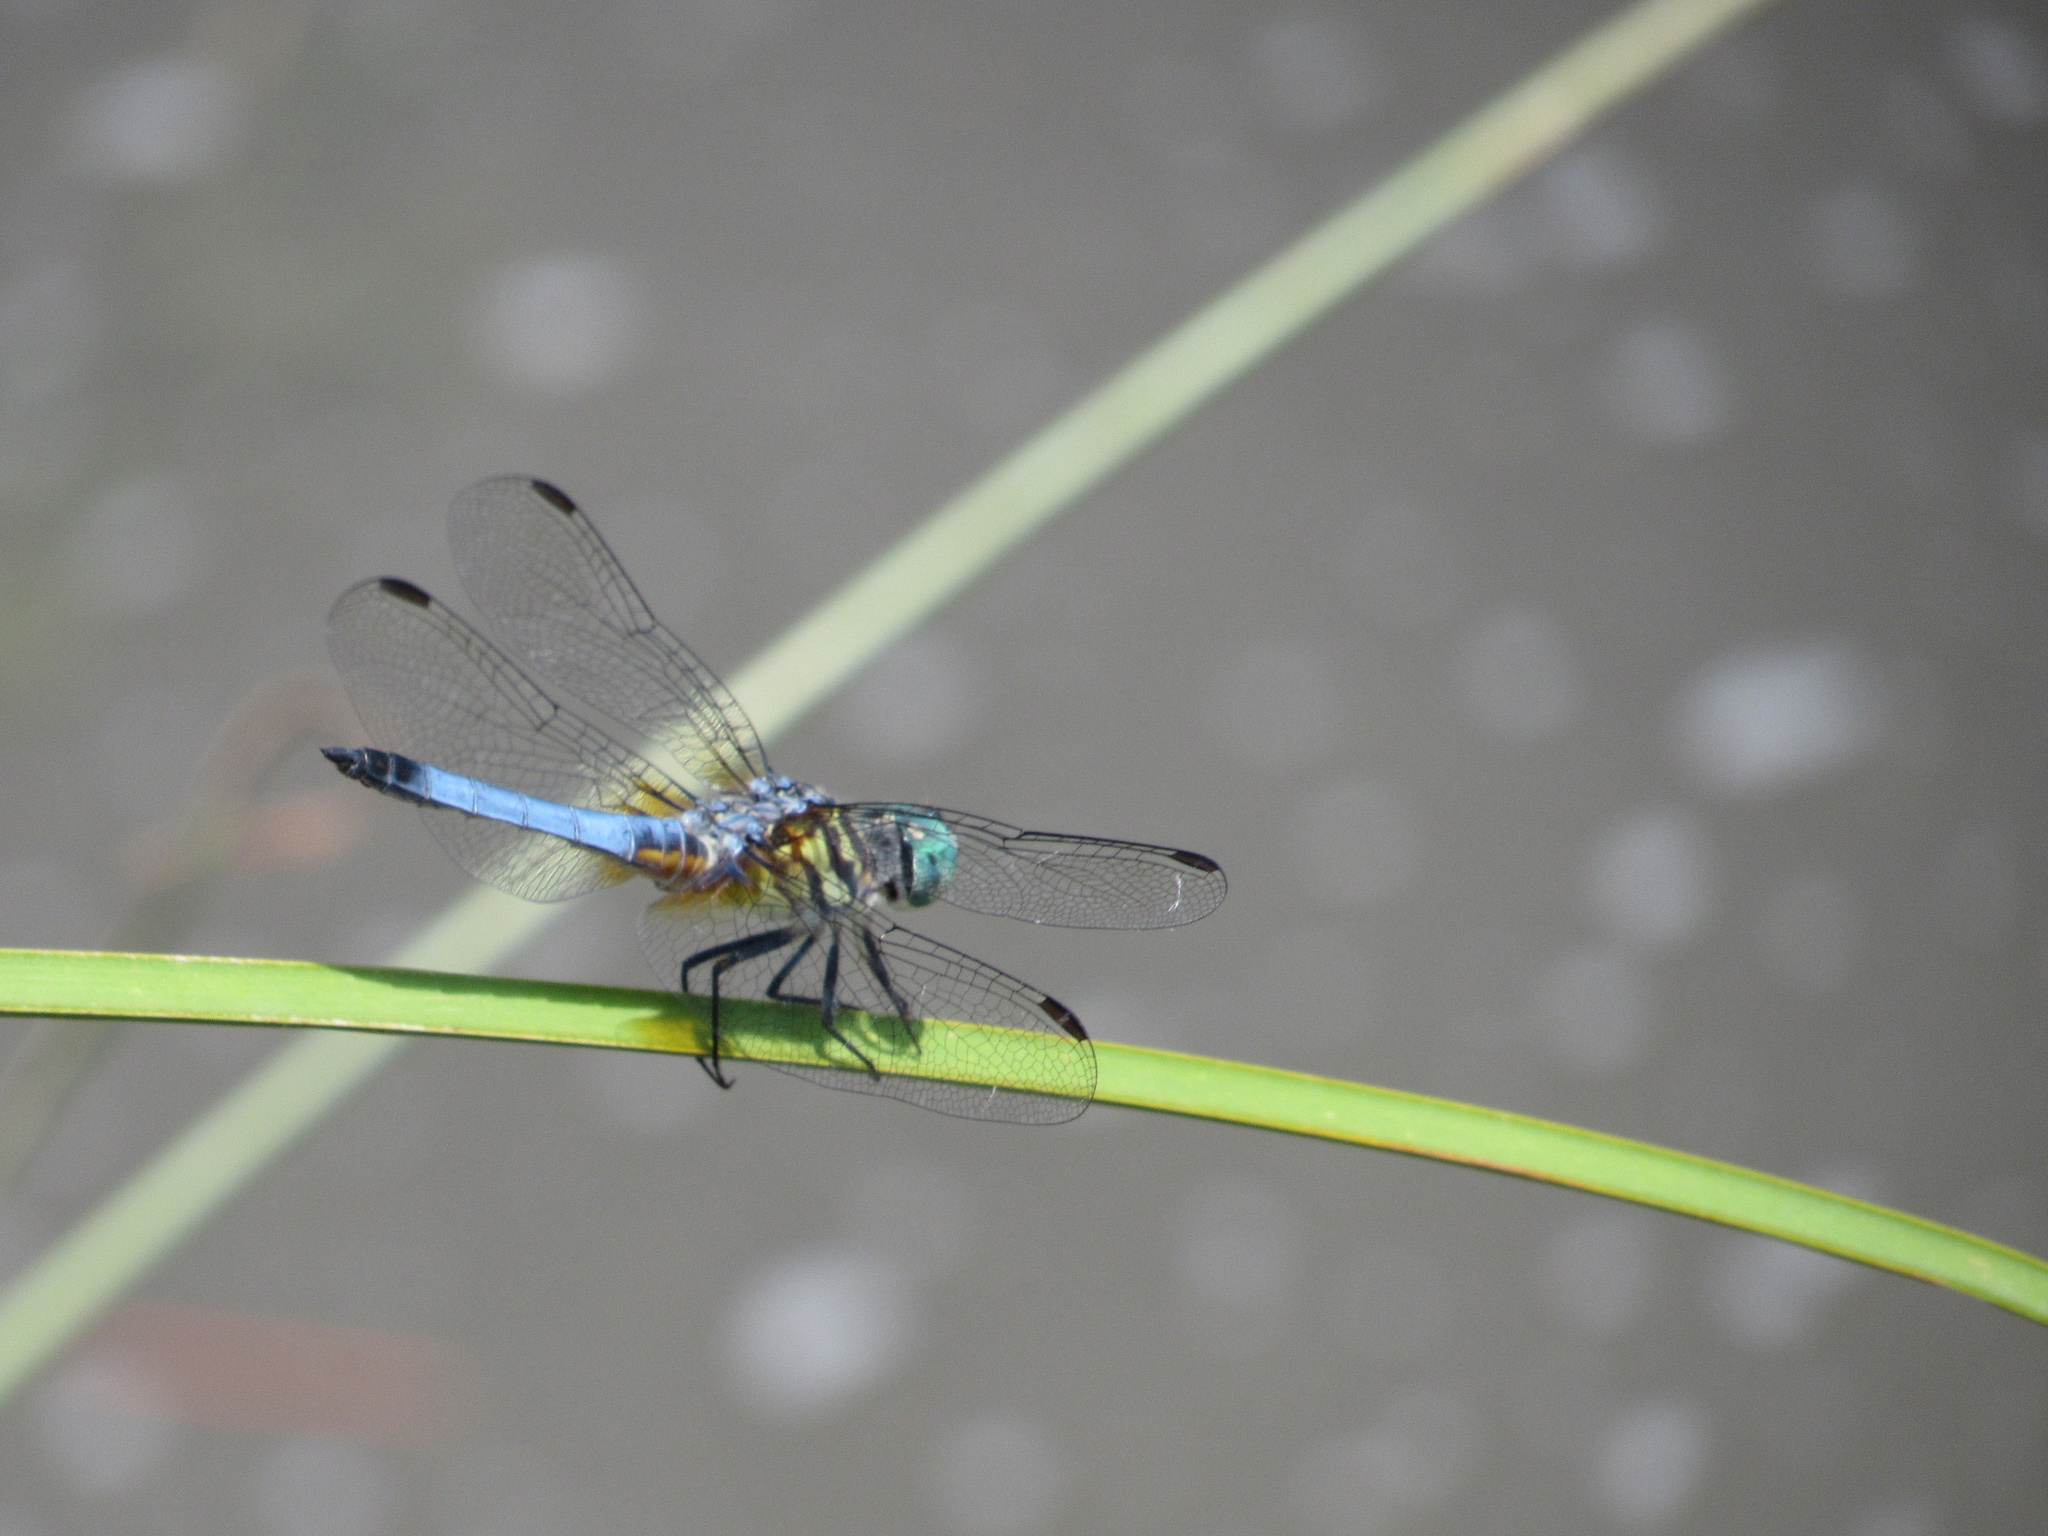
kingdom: Animalia
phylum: Arthropoda
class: Insecta
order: Odonata
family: Libellulidae
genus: Pachydiplax
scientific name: Pachydiplax longipennis
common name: Blue dasher
